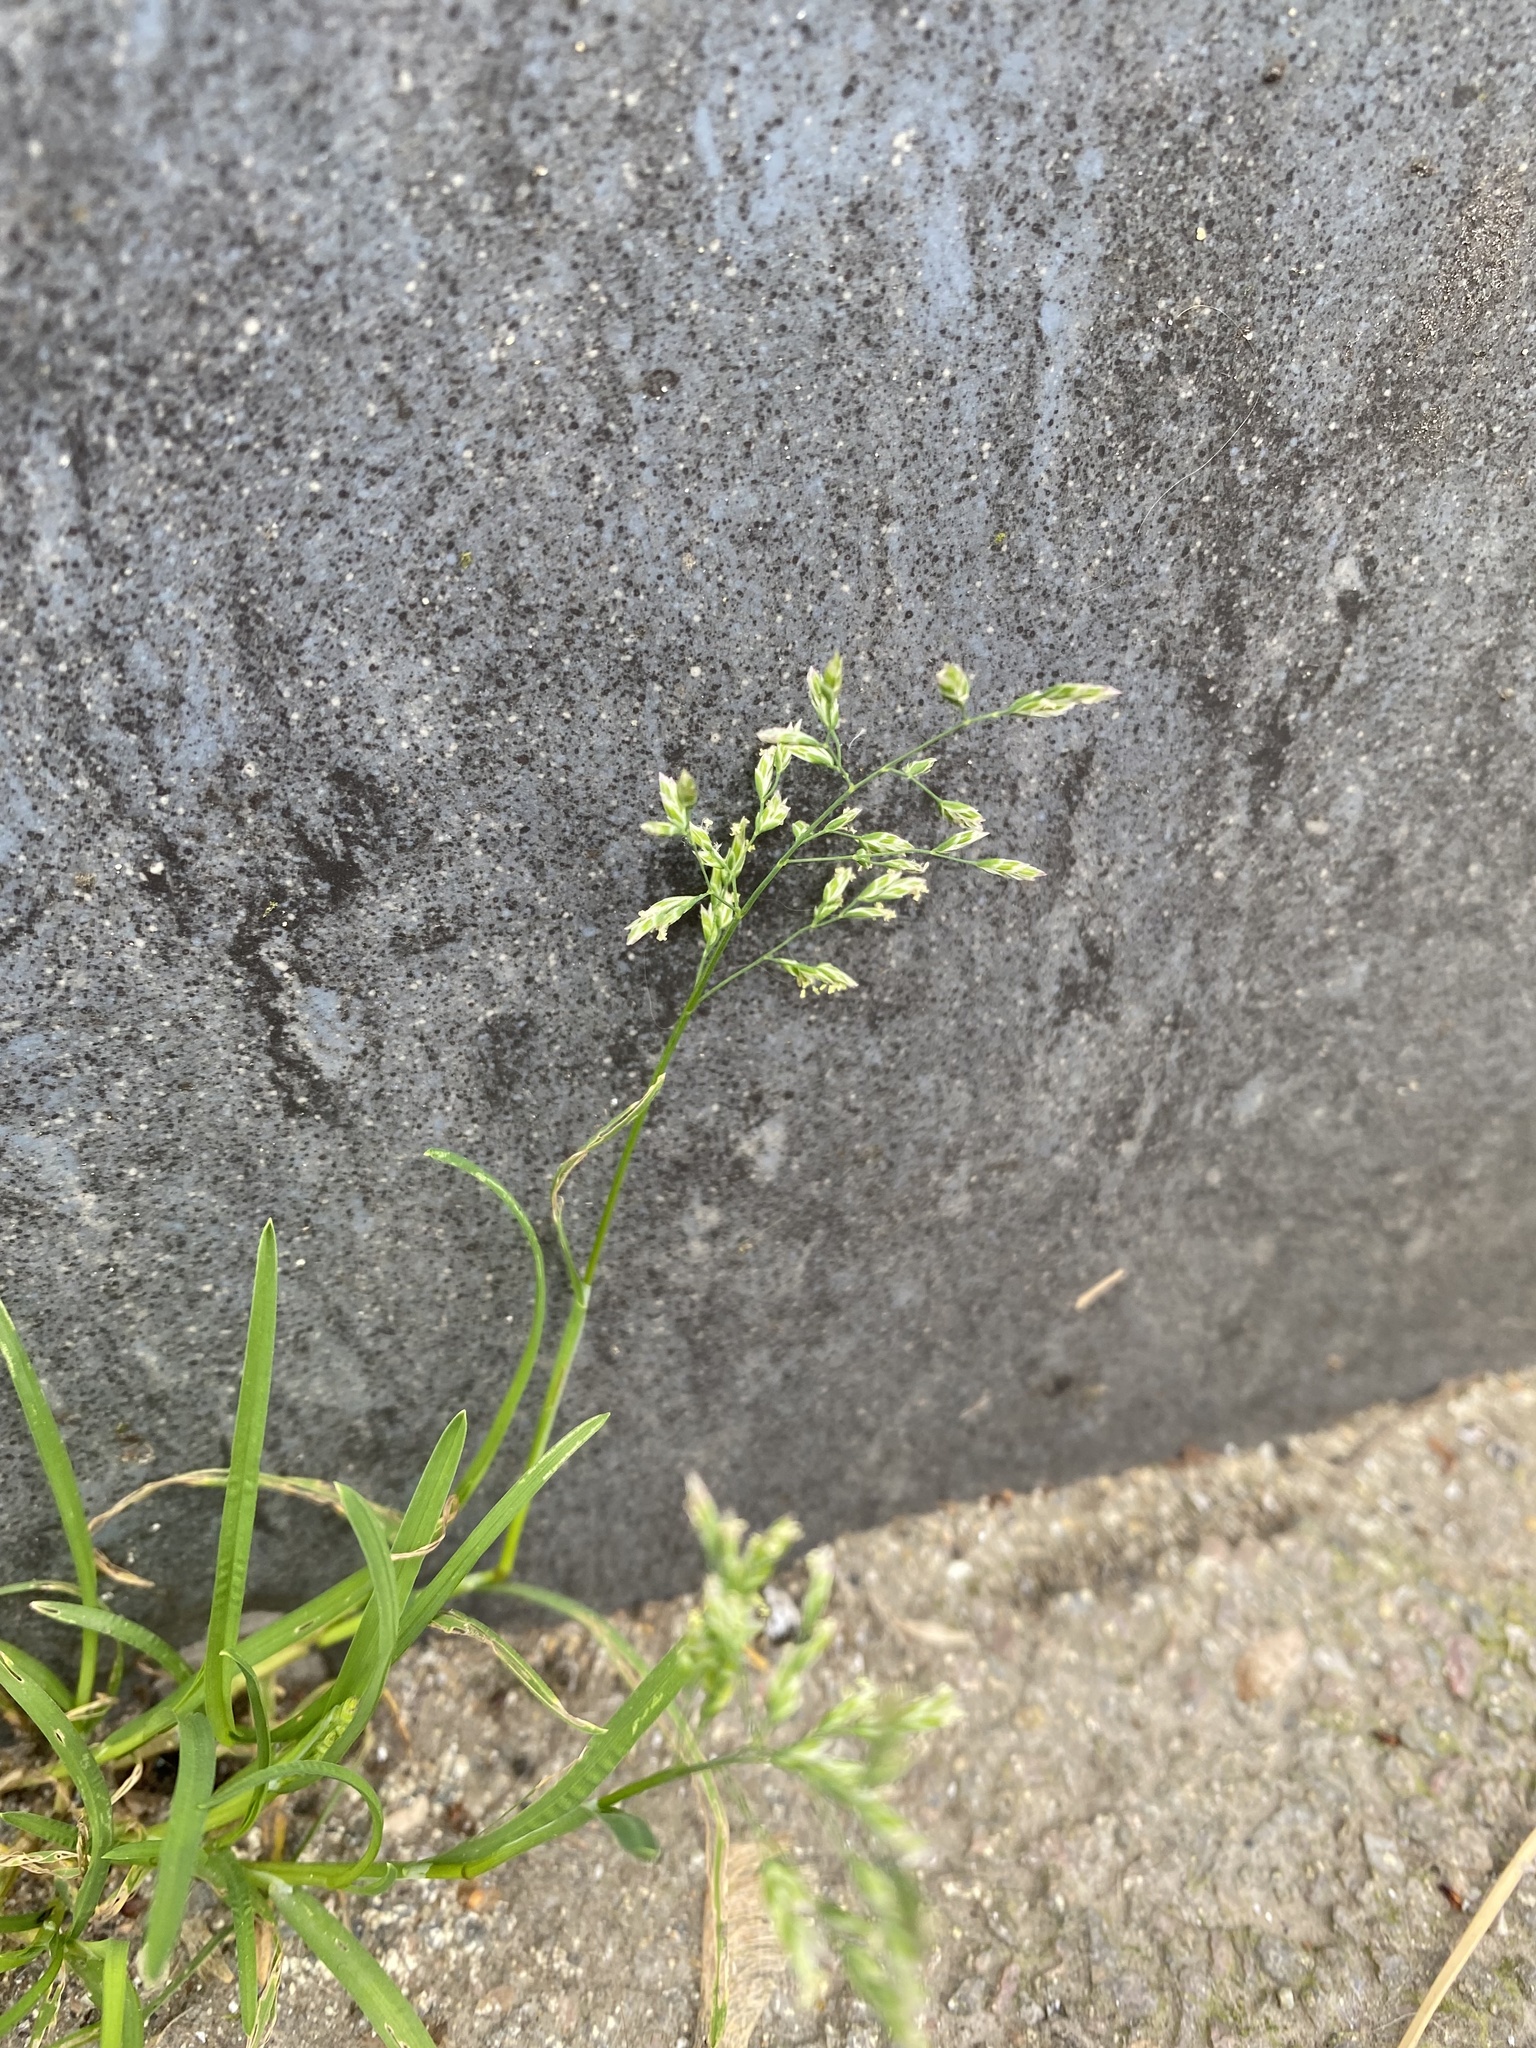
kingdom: Plantae
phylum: Tracheophyta
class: Liliopsida
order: Poales
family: Poaceae
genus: Poa
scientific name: Poa annua
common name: Annual bluegrass
